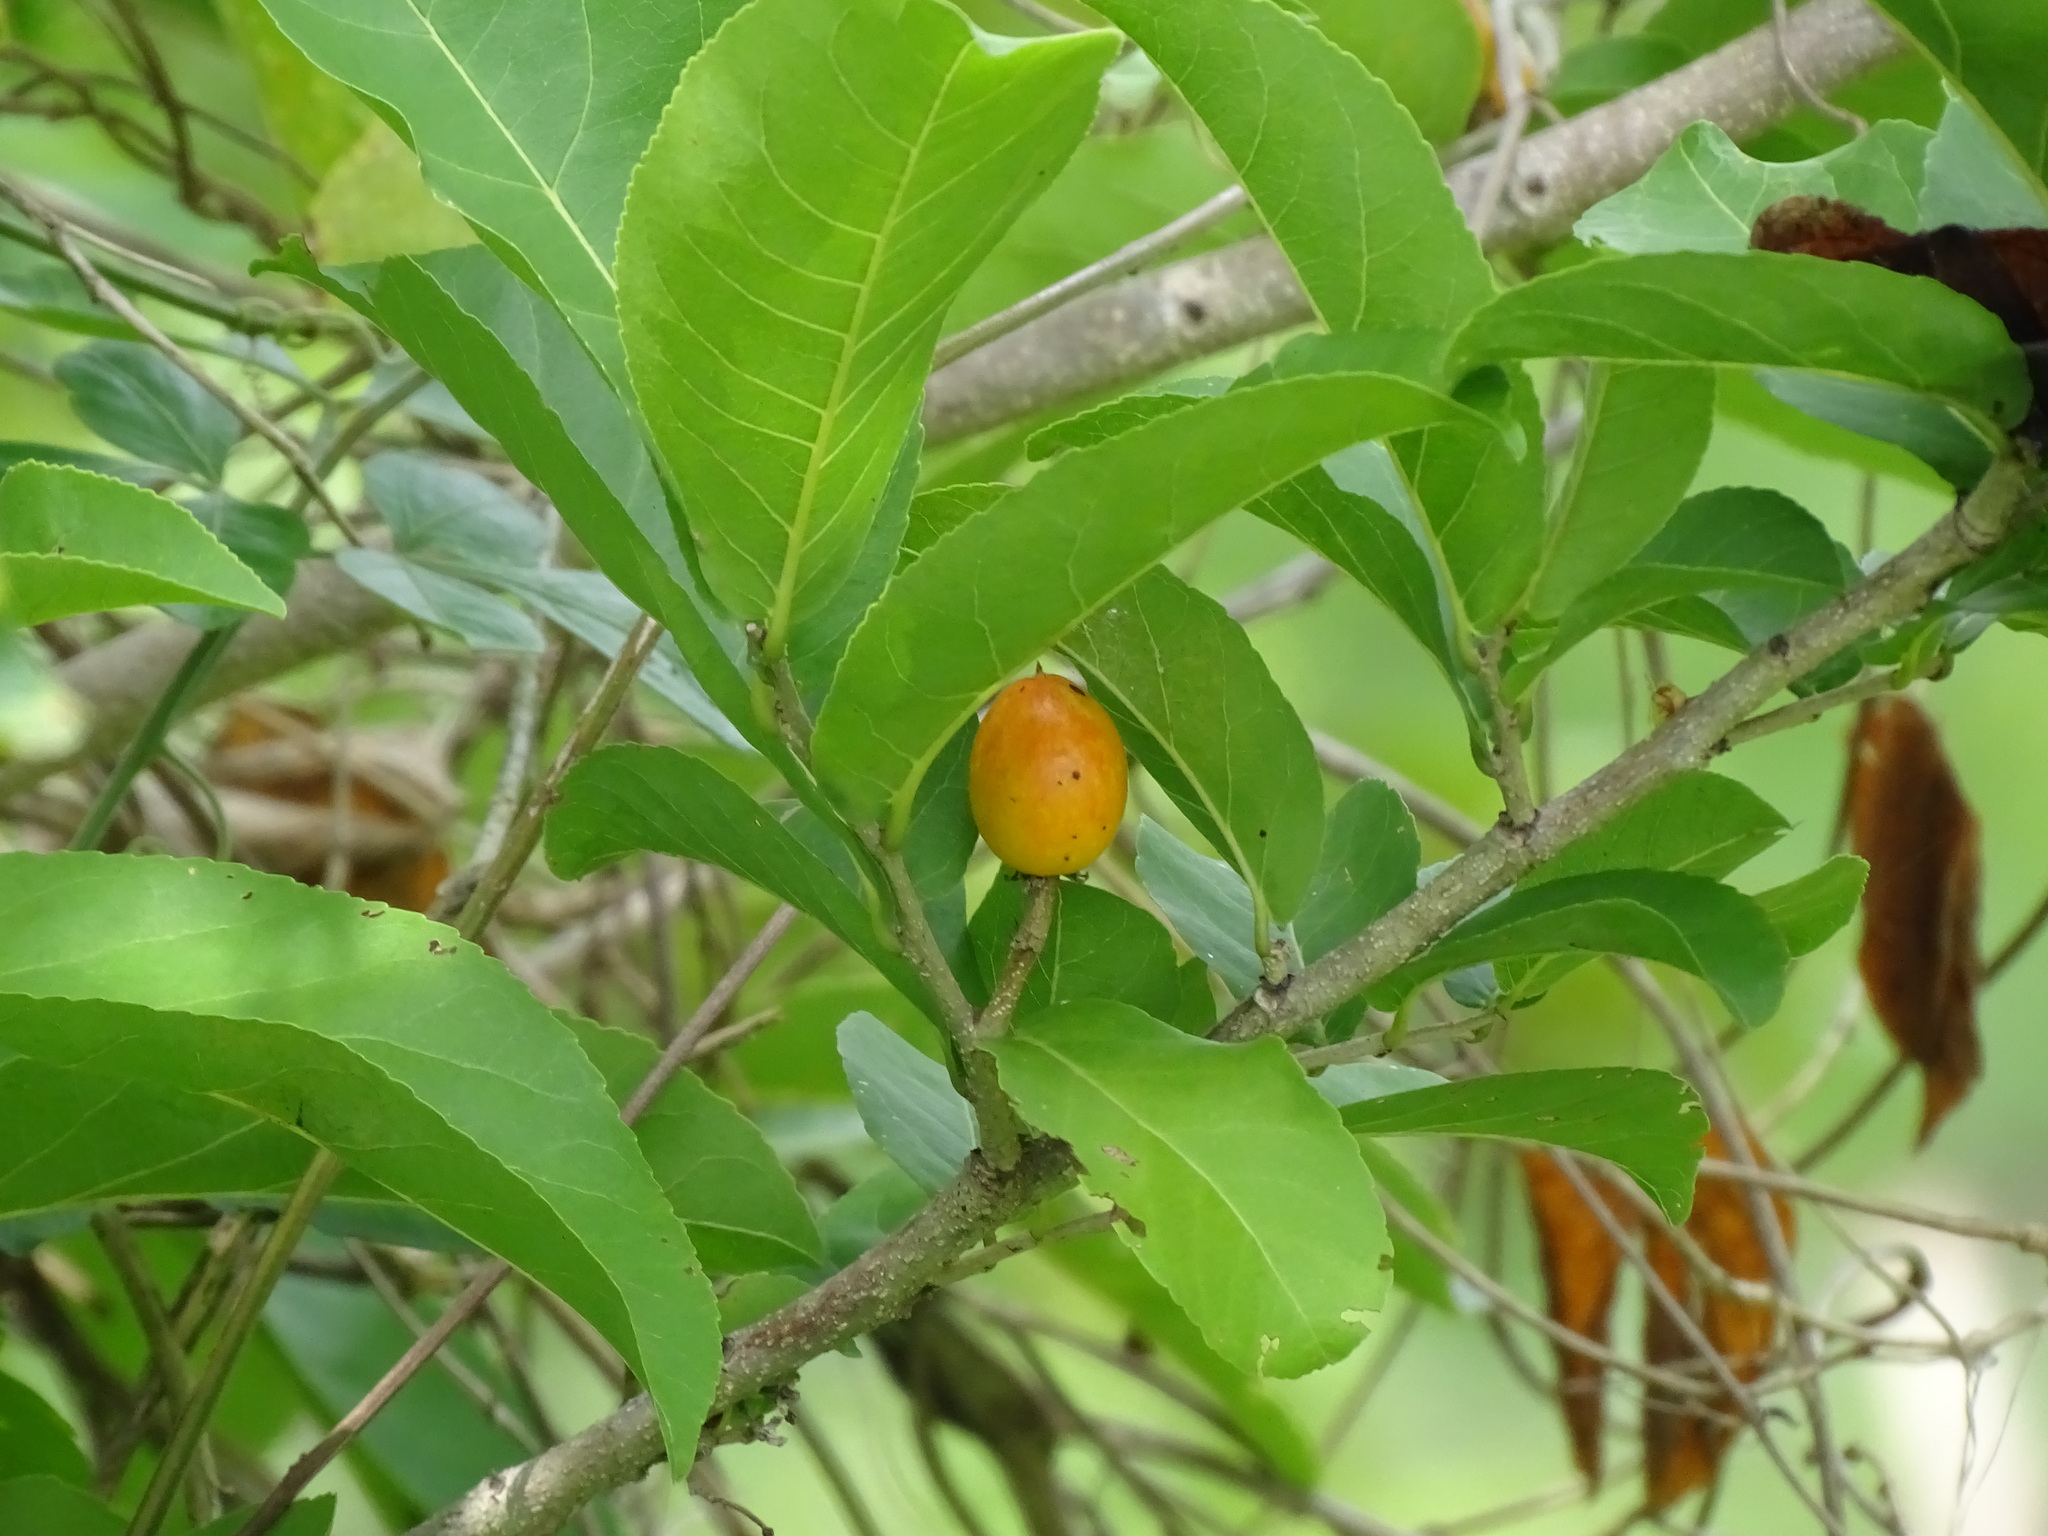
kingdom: Plantae
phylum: Tracheophyta
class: Magnoliopsida
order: Malpighiales
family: Salicaceae
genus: Casearia
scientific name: Casearia corymbosa
